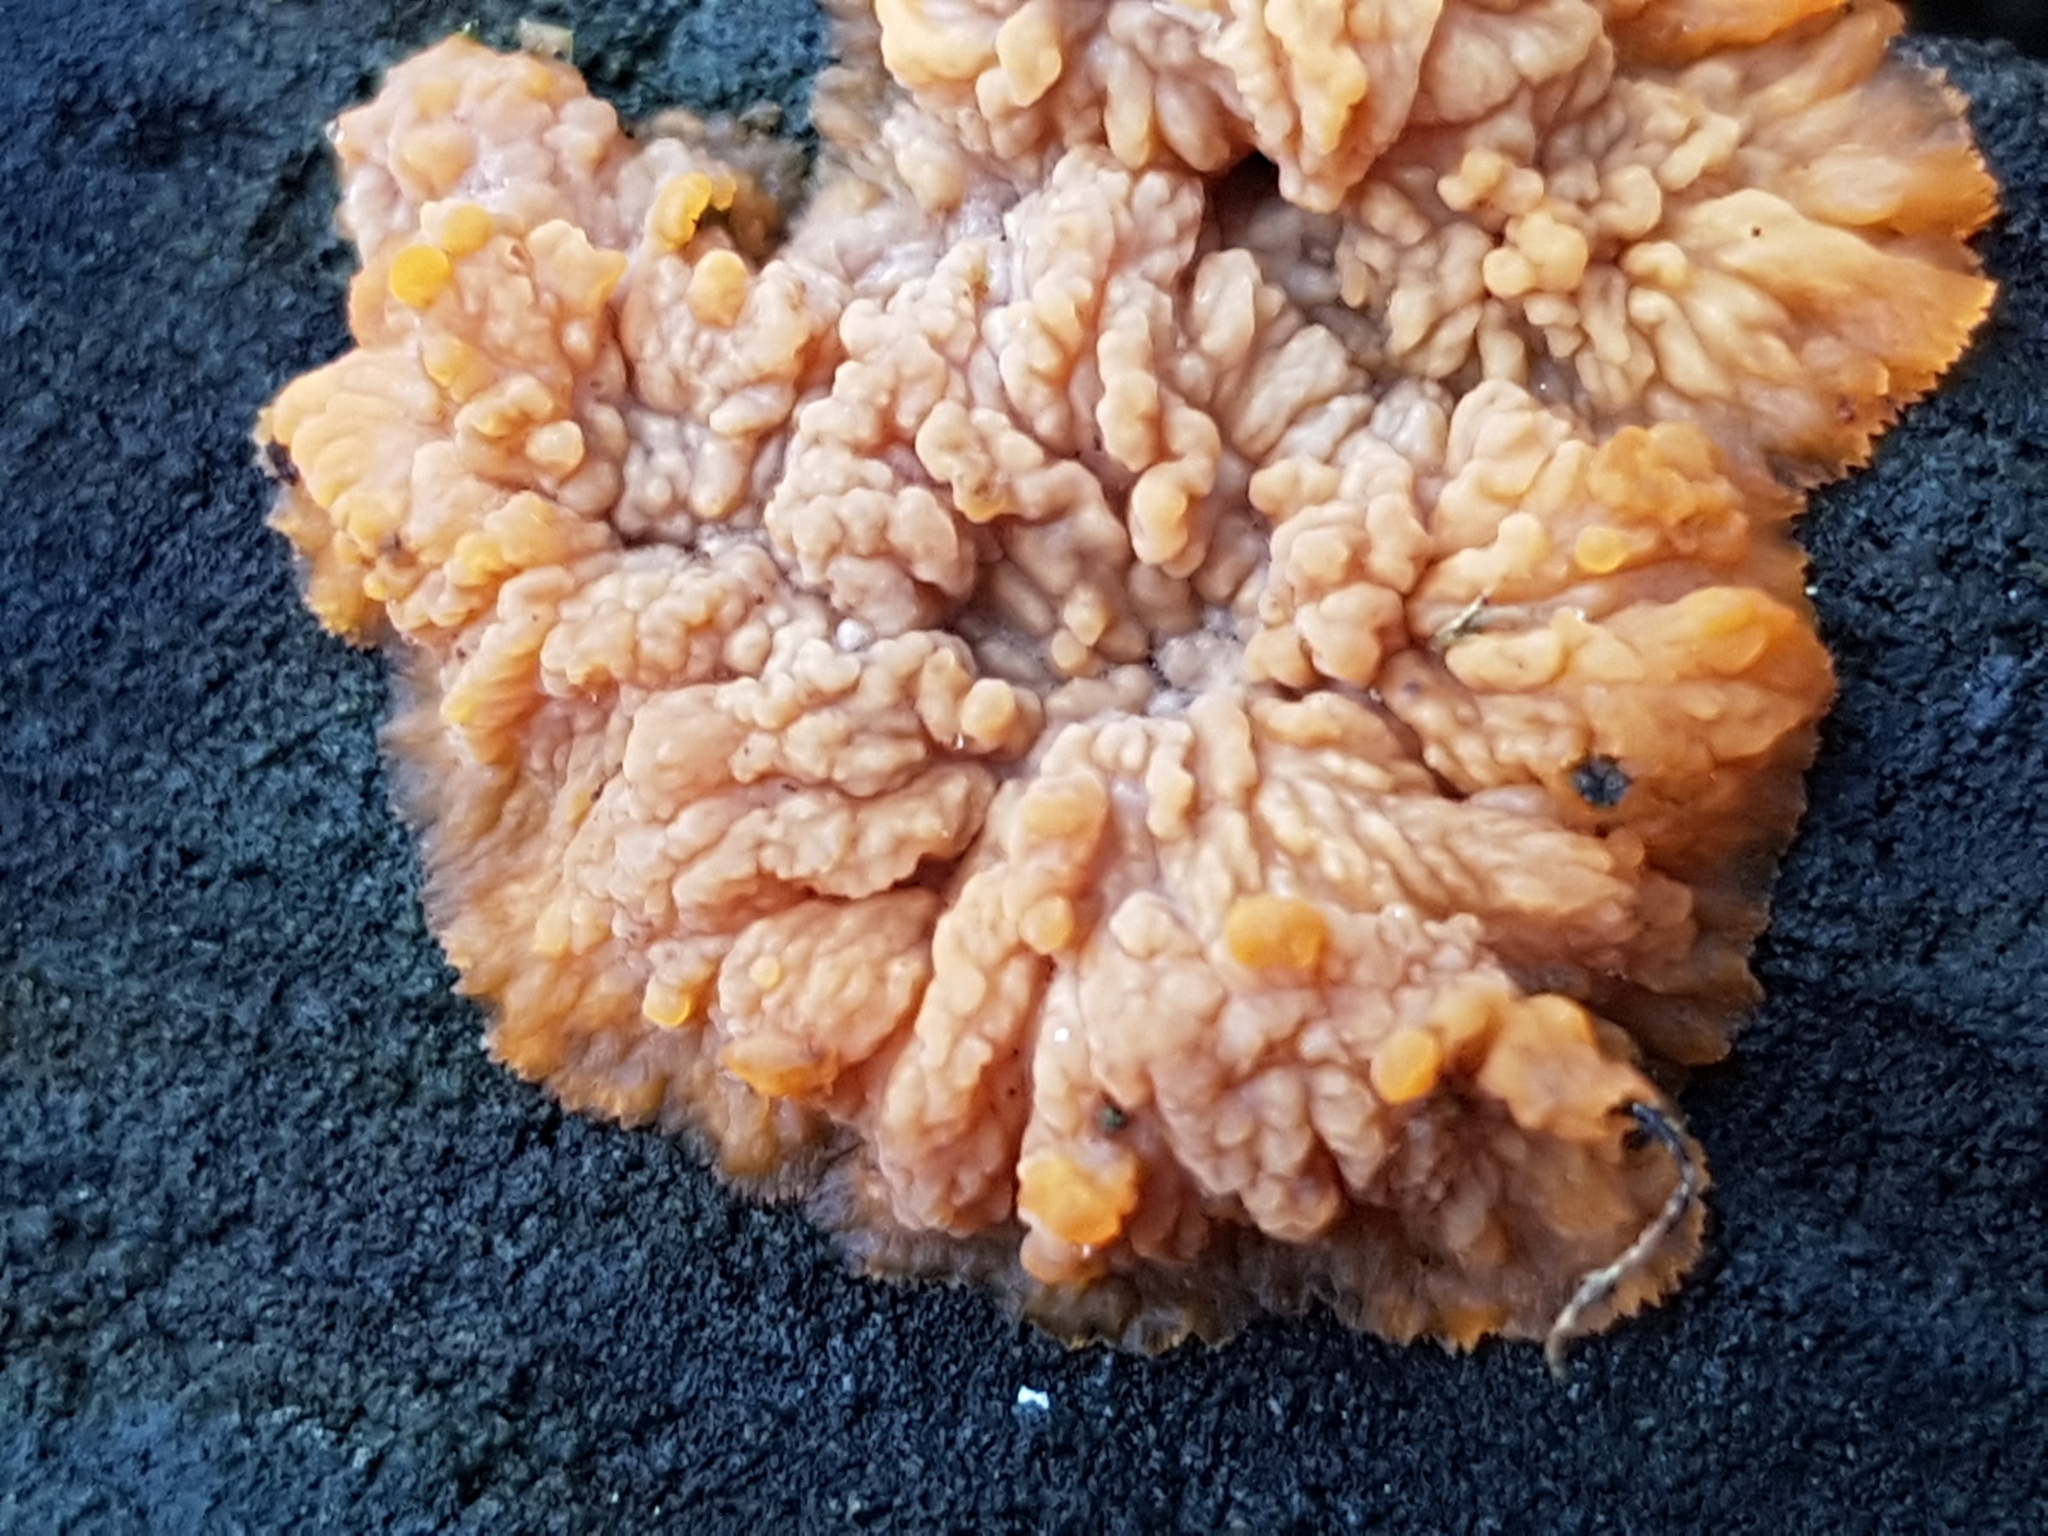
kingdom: Fungi
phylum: Basidiomycota
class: Agaricomycetes
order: Polyporales
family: Meruliaceae
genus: Phlebia
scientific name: Phlebia radiata
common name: Wrinkled crust
